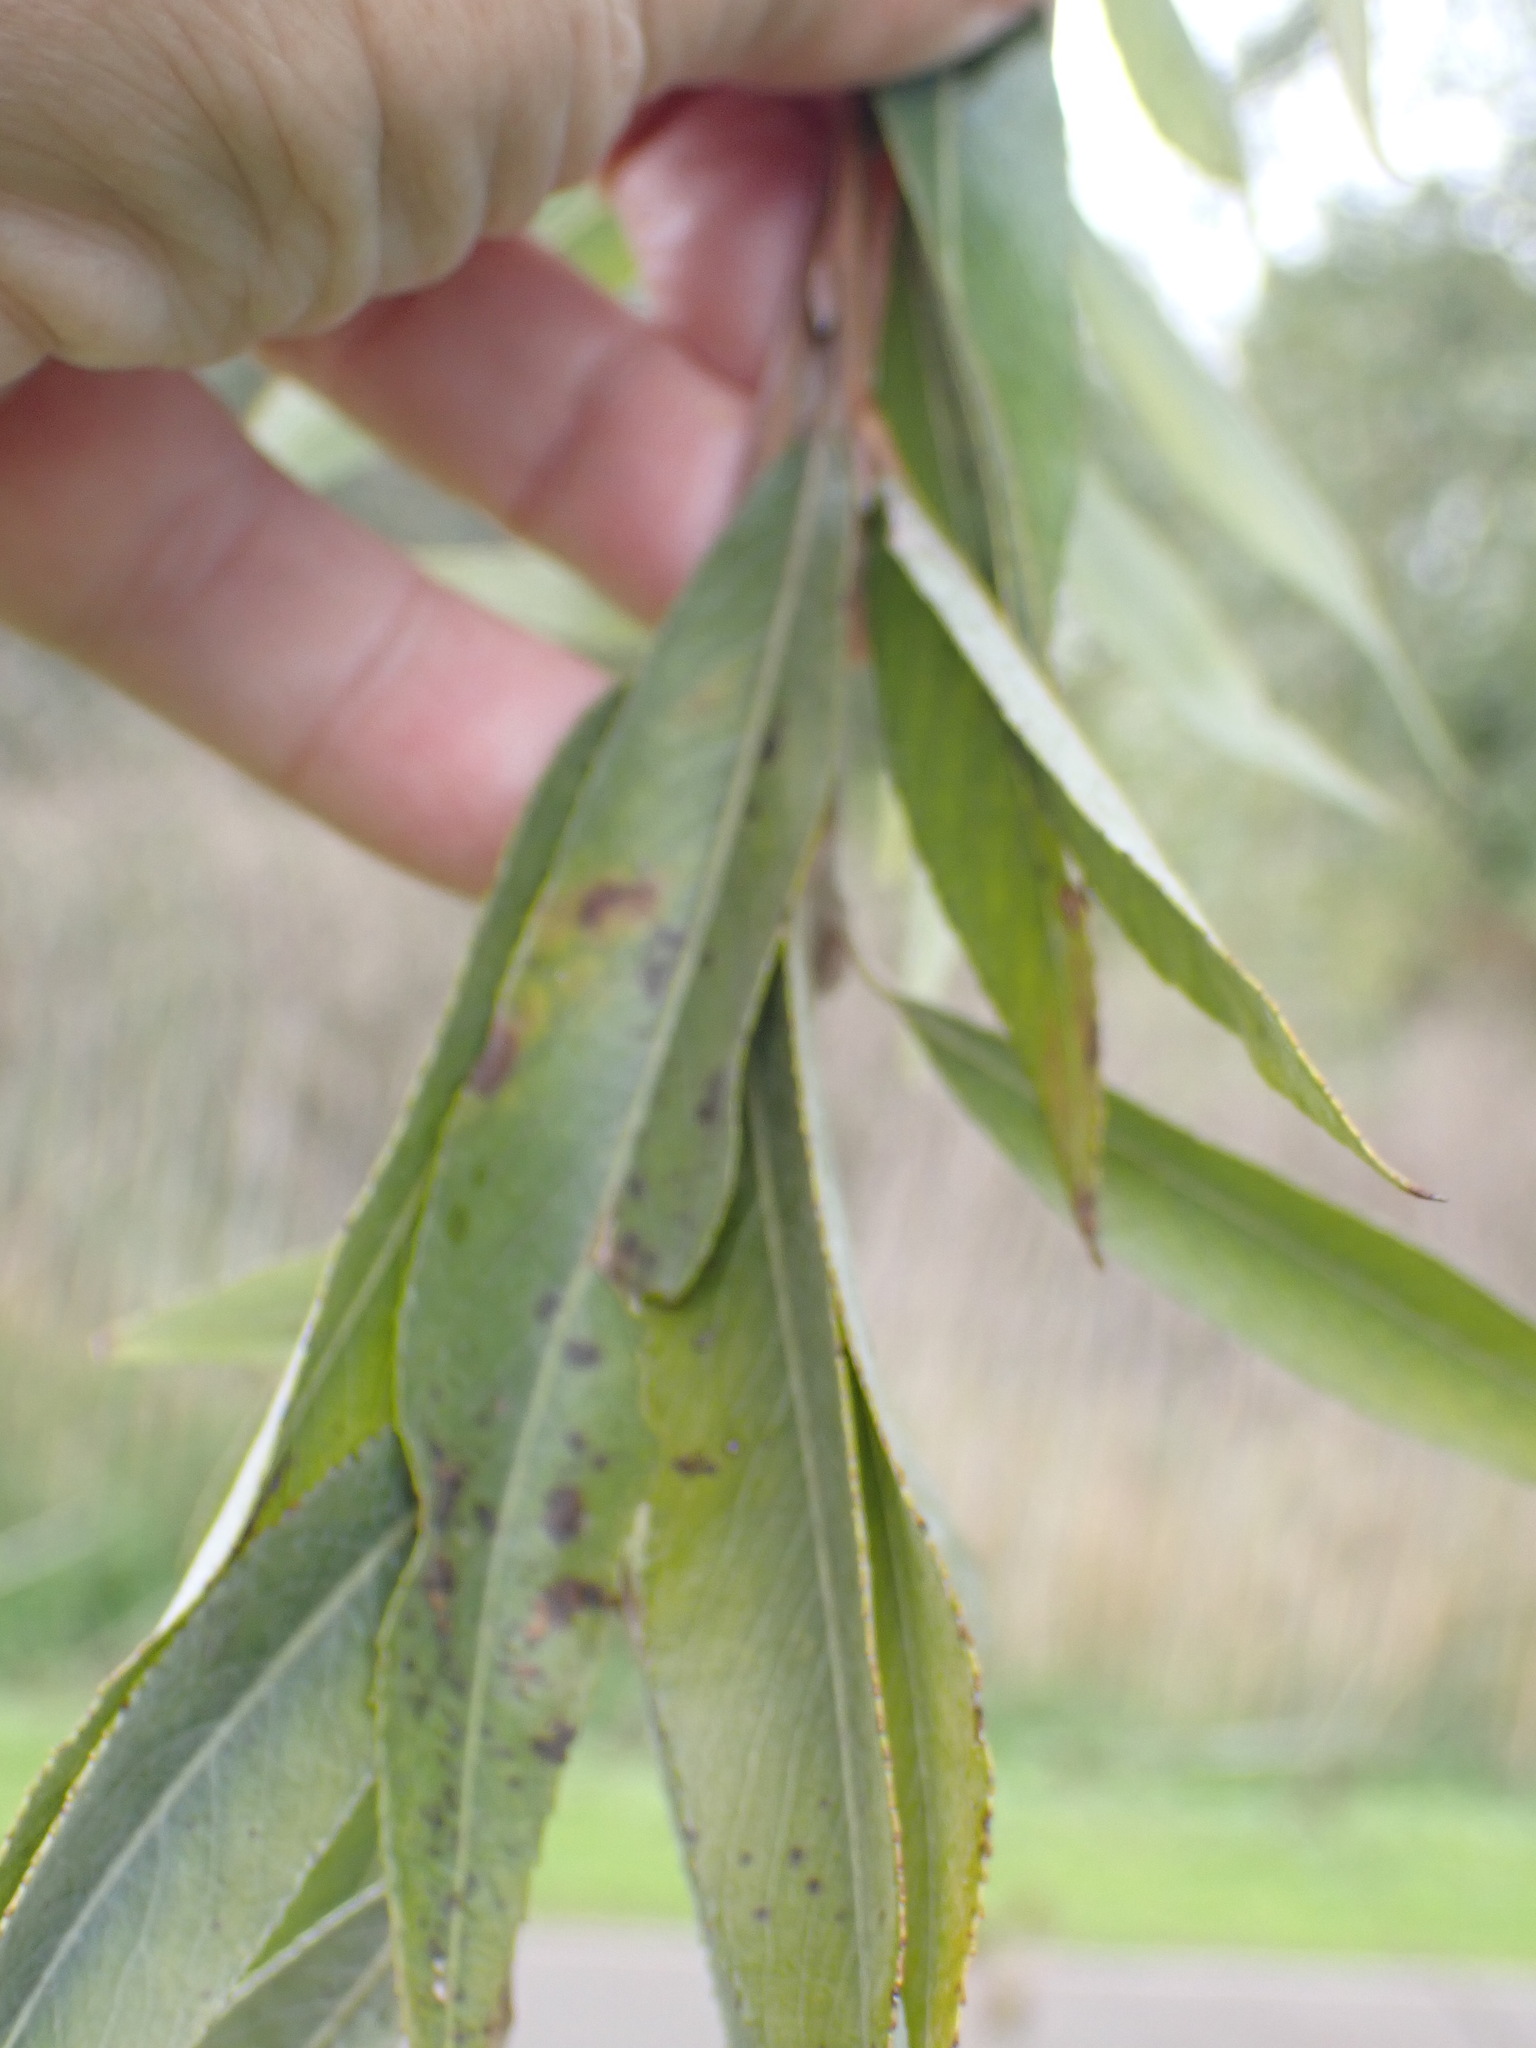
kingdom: Plantae
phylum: Tracheophyta
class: Magnoliopsida
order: Malpighiales
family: Salicaceae
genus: Salix
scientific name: Salix alba
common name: White willow
